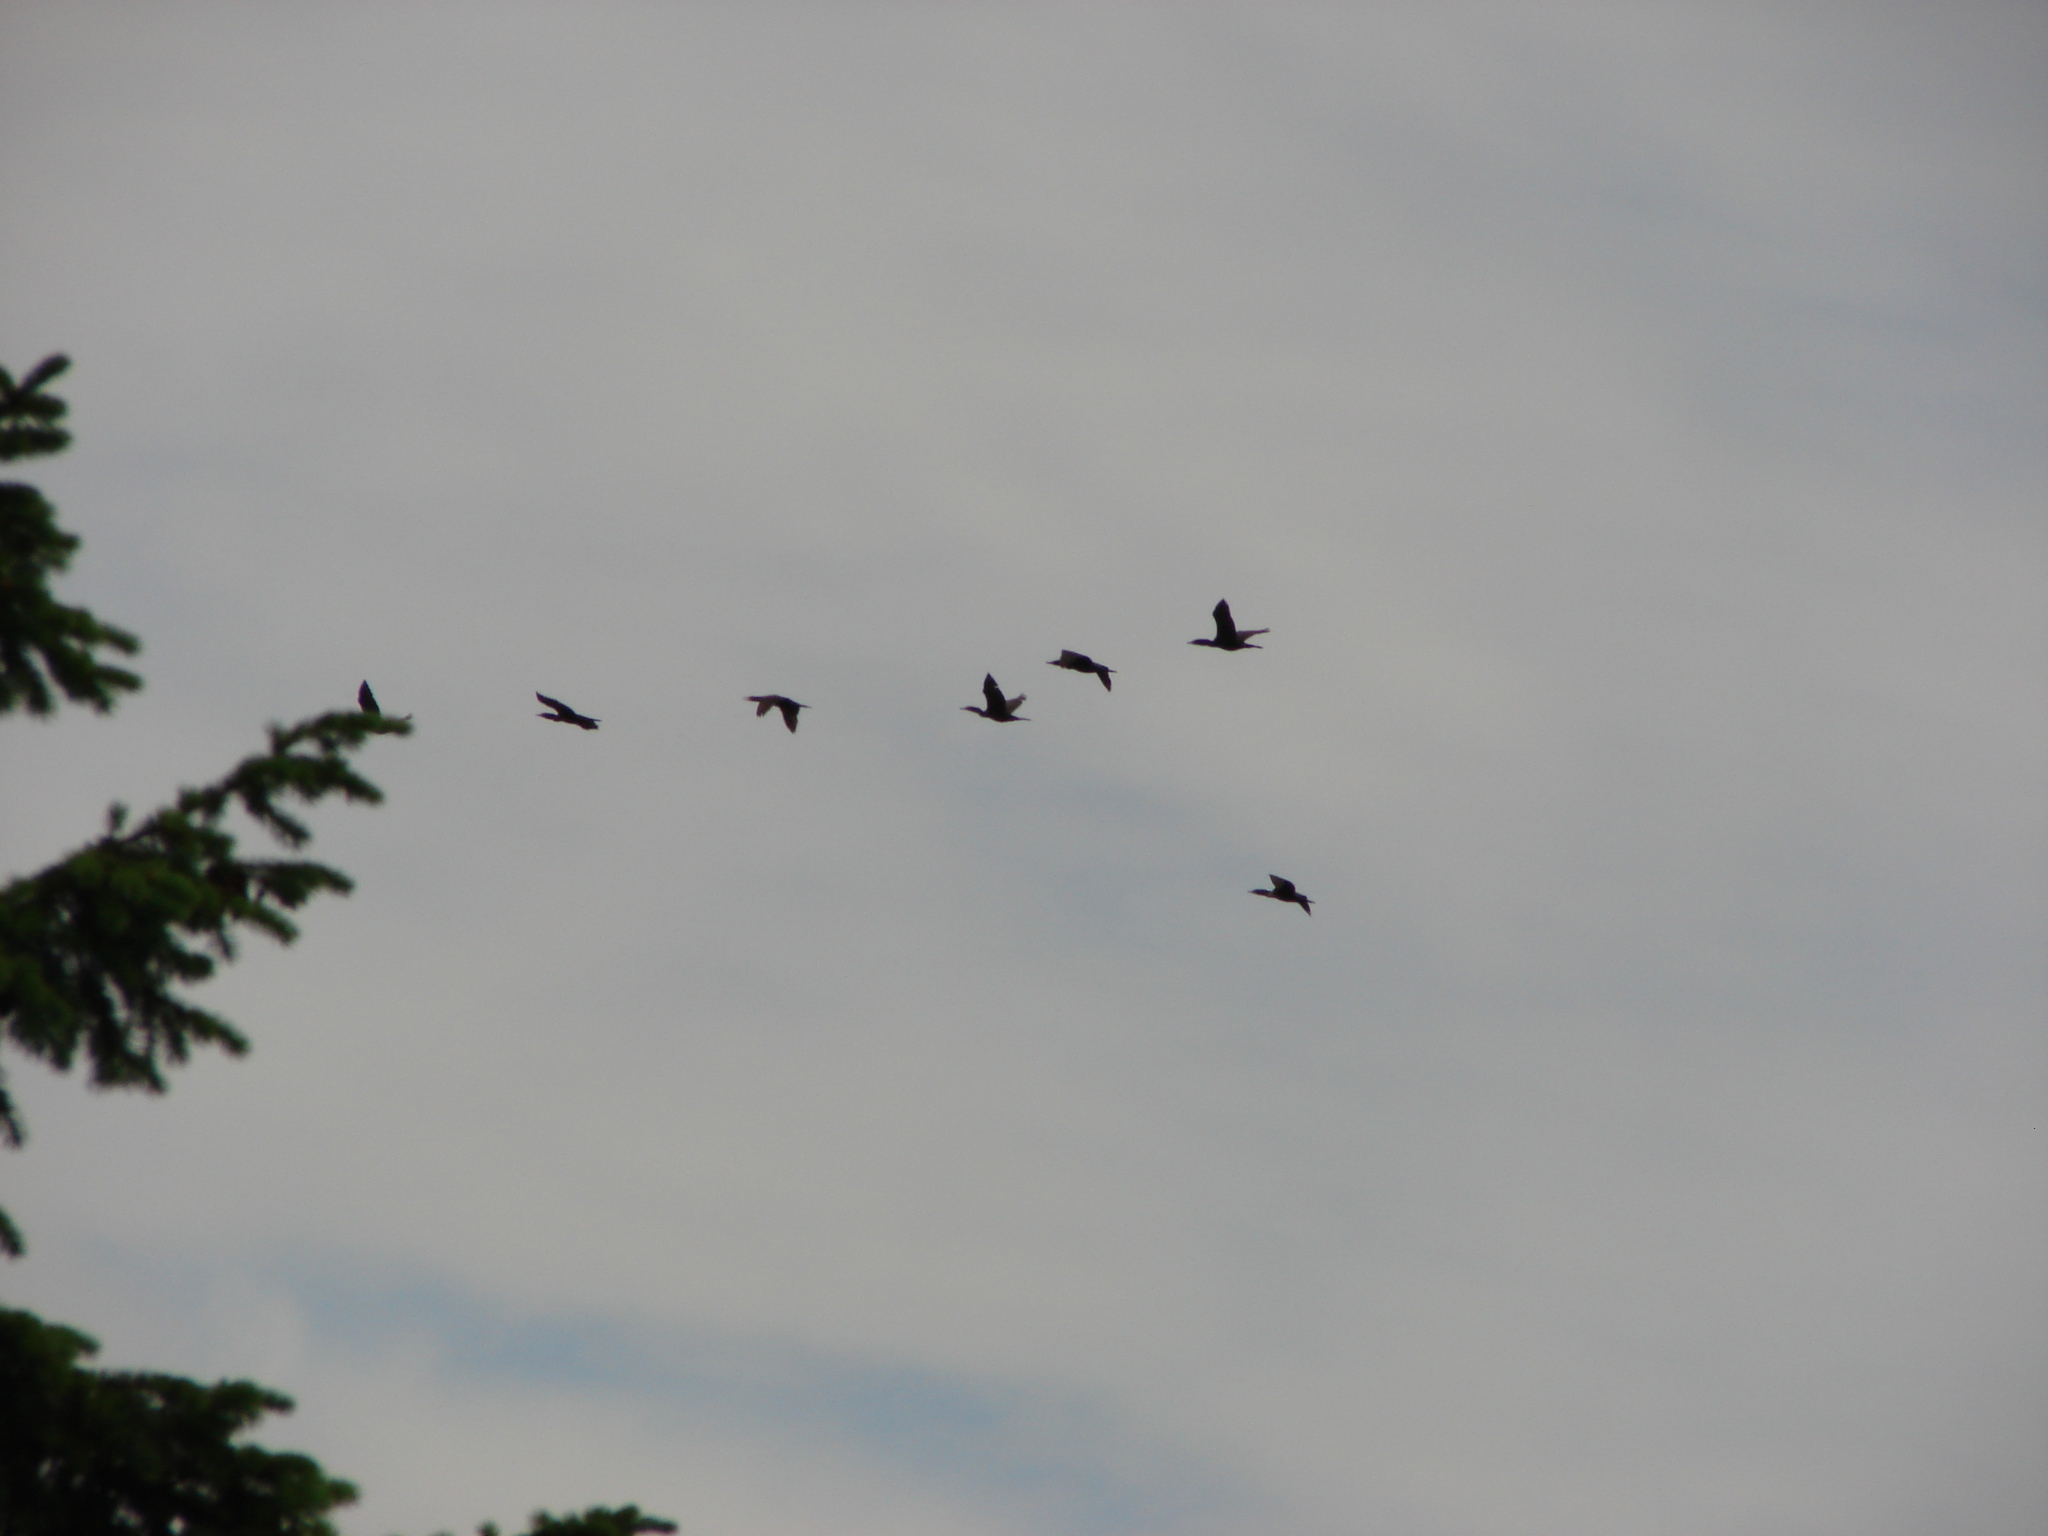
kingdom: Animalia
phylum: Chordata
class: Aves
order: Suliformes
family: Phalacrocoracidae
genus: Phalacrocorax
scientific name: Phalacrocorax auritus
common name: Double-crested cormorant
